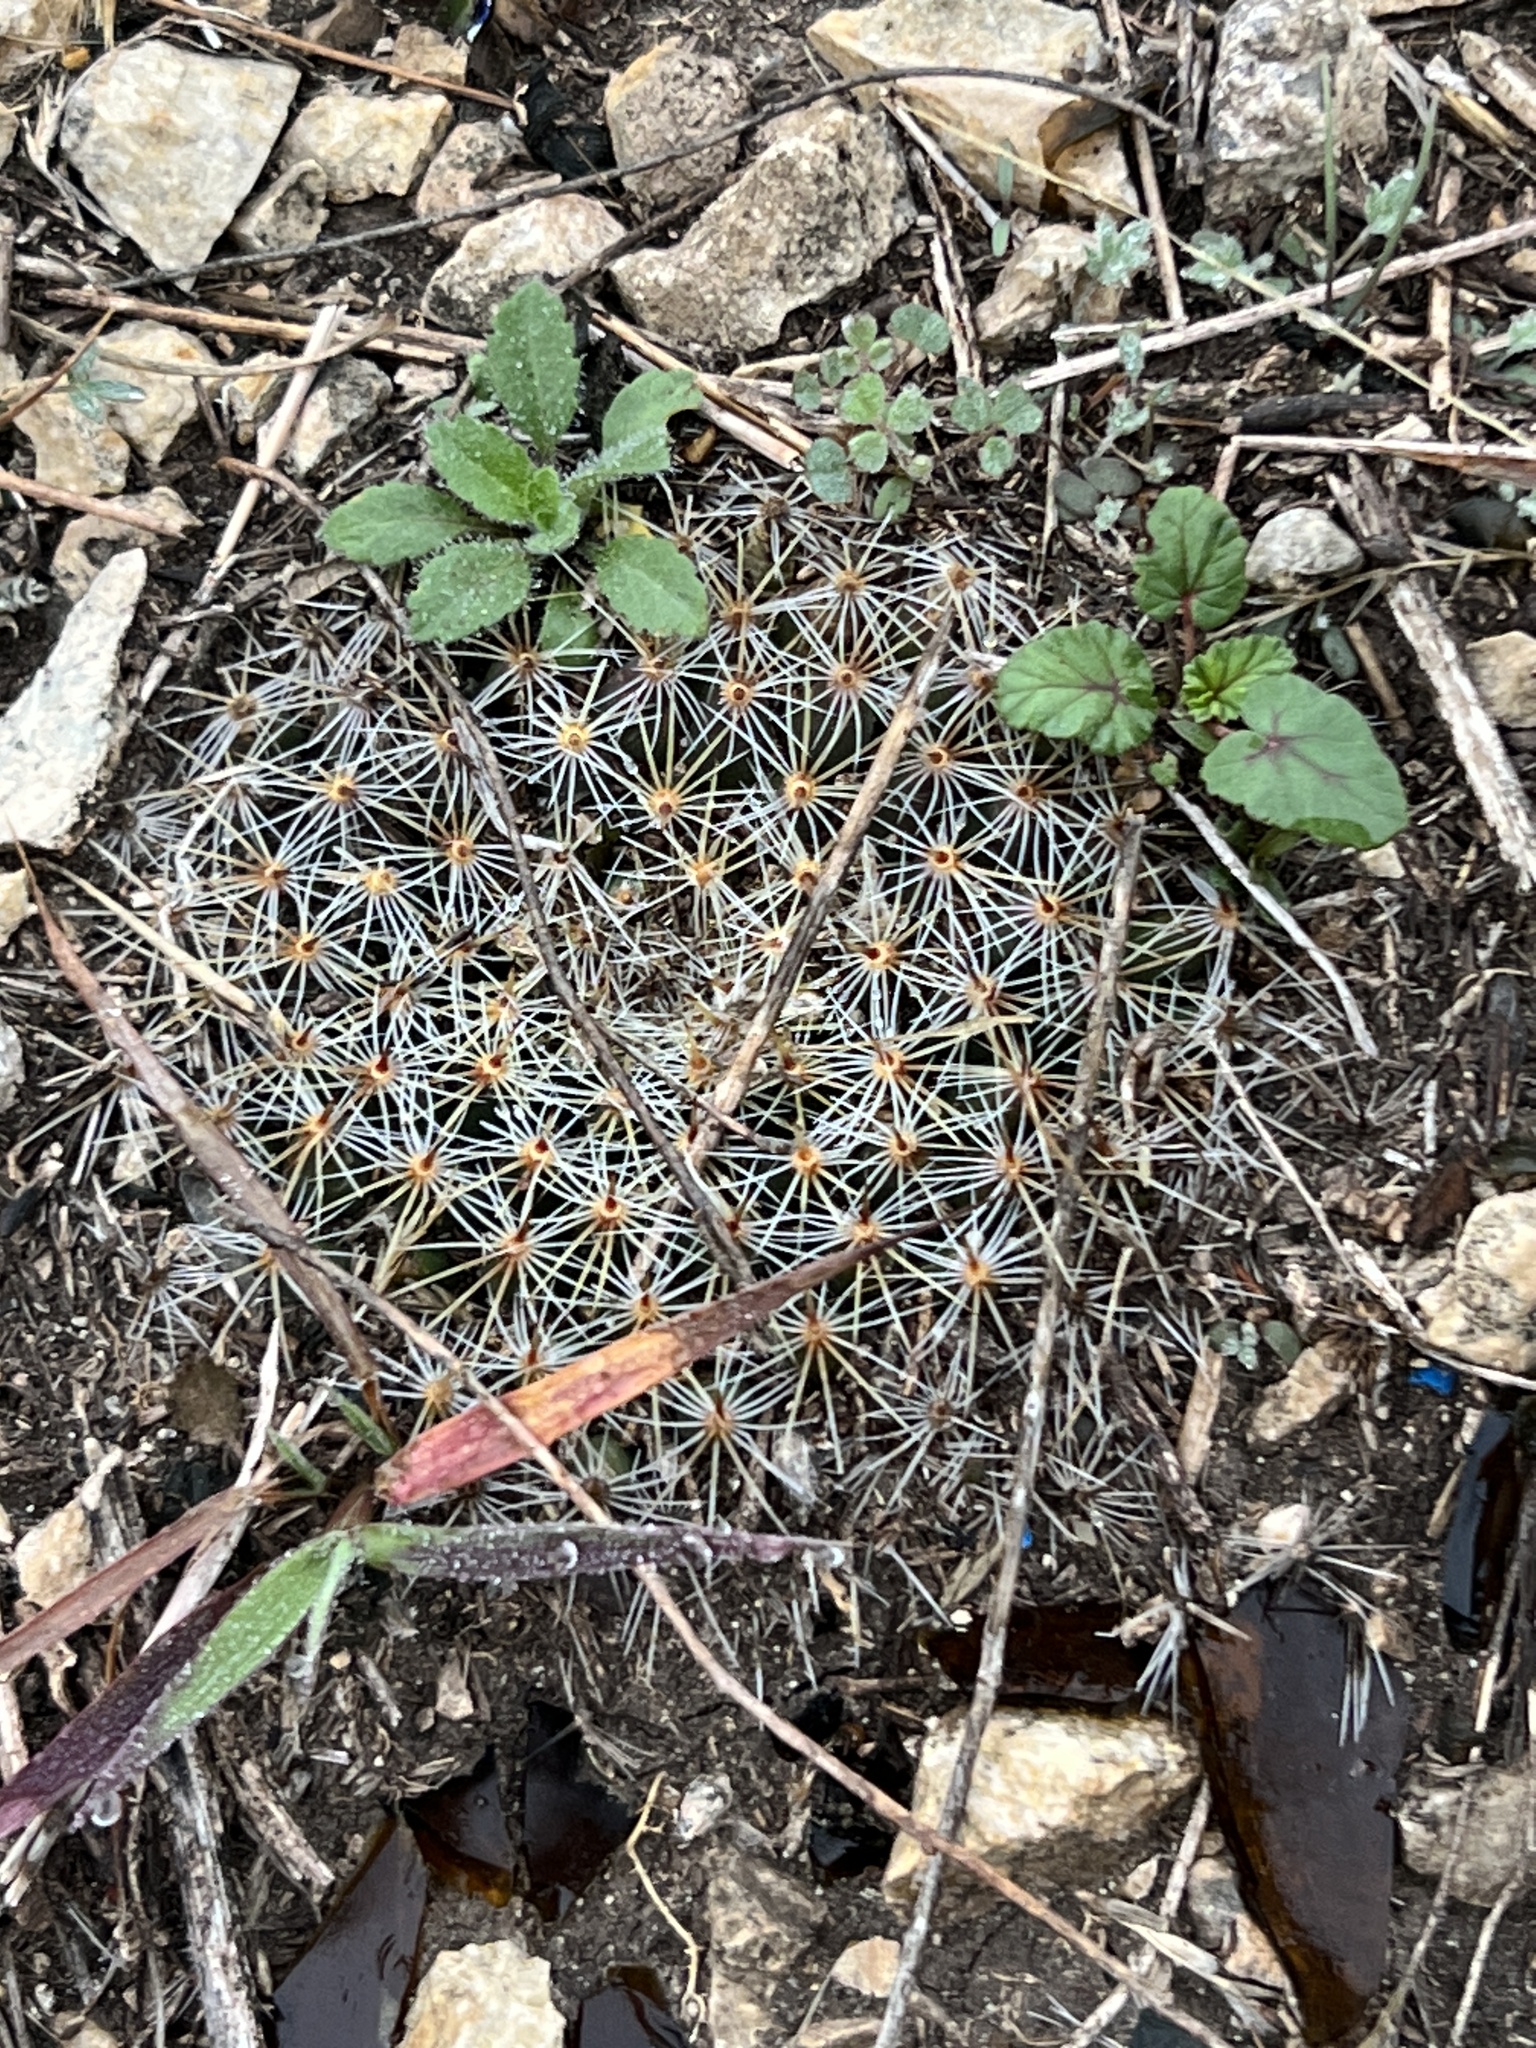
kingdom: Plantae
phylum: Tracheophyta
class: Magnoliopsida
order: Caryophyllales
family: Cactaceae
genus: Mammillaria
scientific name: Mammillaria heyderi
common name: Little nipple cactus
